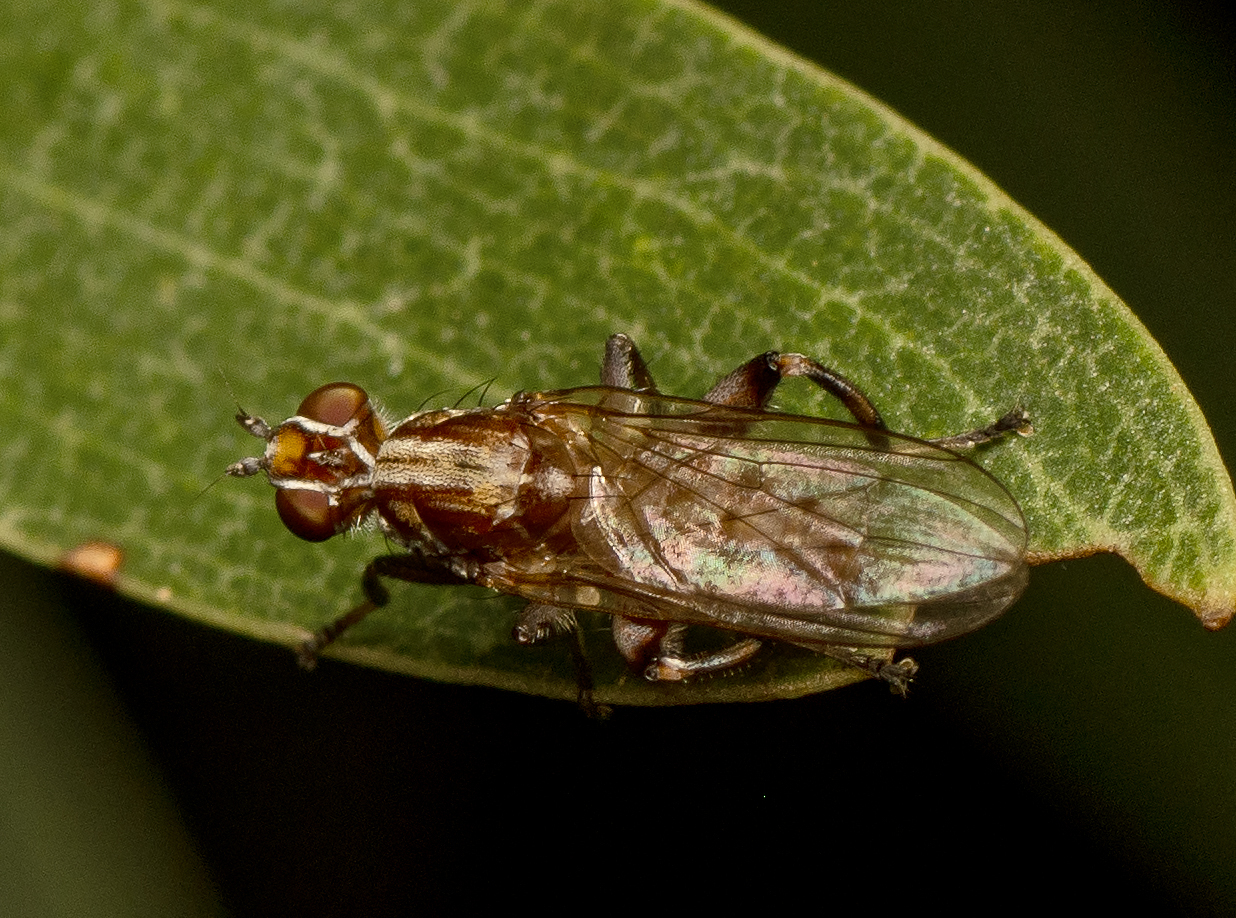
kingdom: Animalia
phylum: Arthropoda
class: Insecta
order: Diptera
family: Heleomyzidae
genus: Tapeigaster
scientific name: Tapeigaster nigricornis
